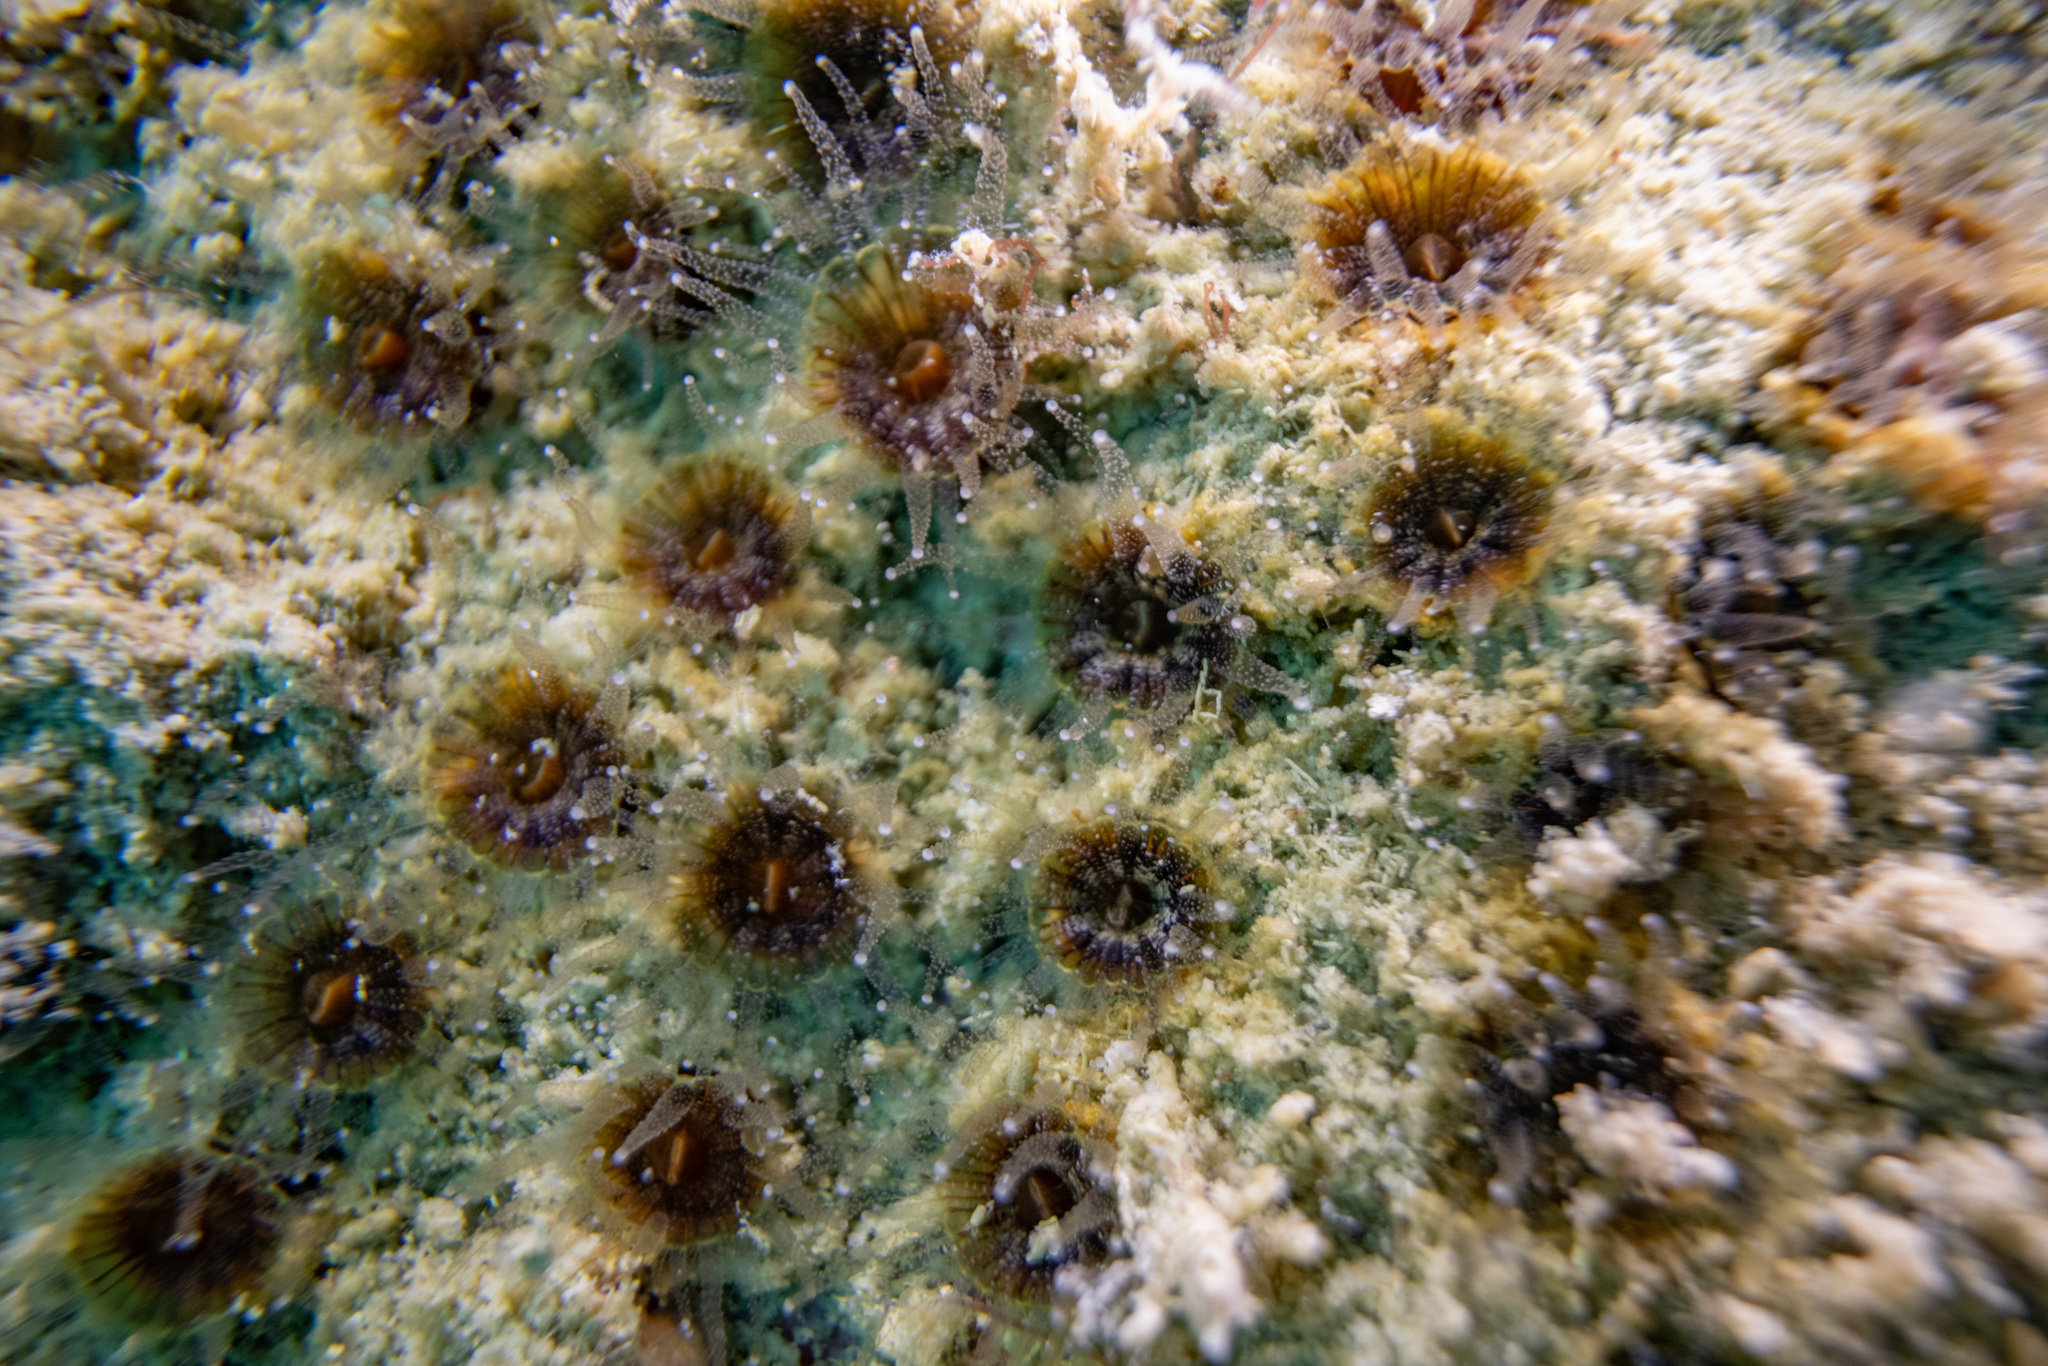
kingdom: Animalia
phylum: Cnidaria
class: Anthozoa
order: Scleractinia
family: Rhizangiidae
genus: Culicia
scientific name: Culicia rubeola
